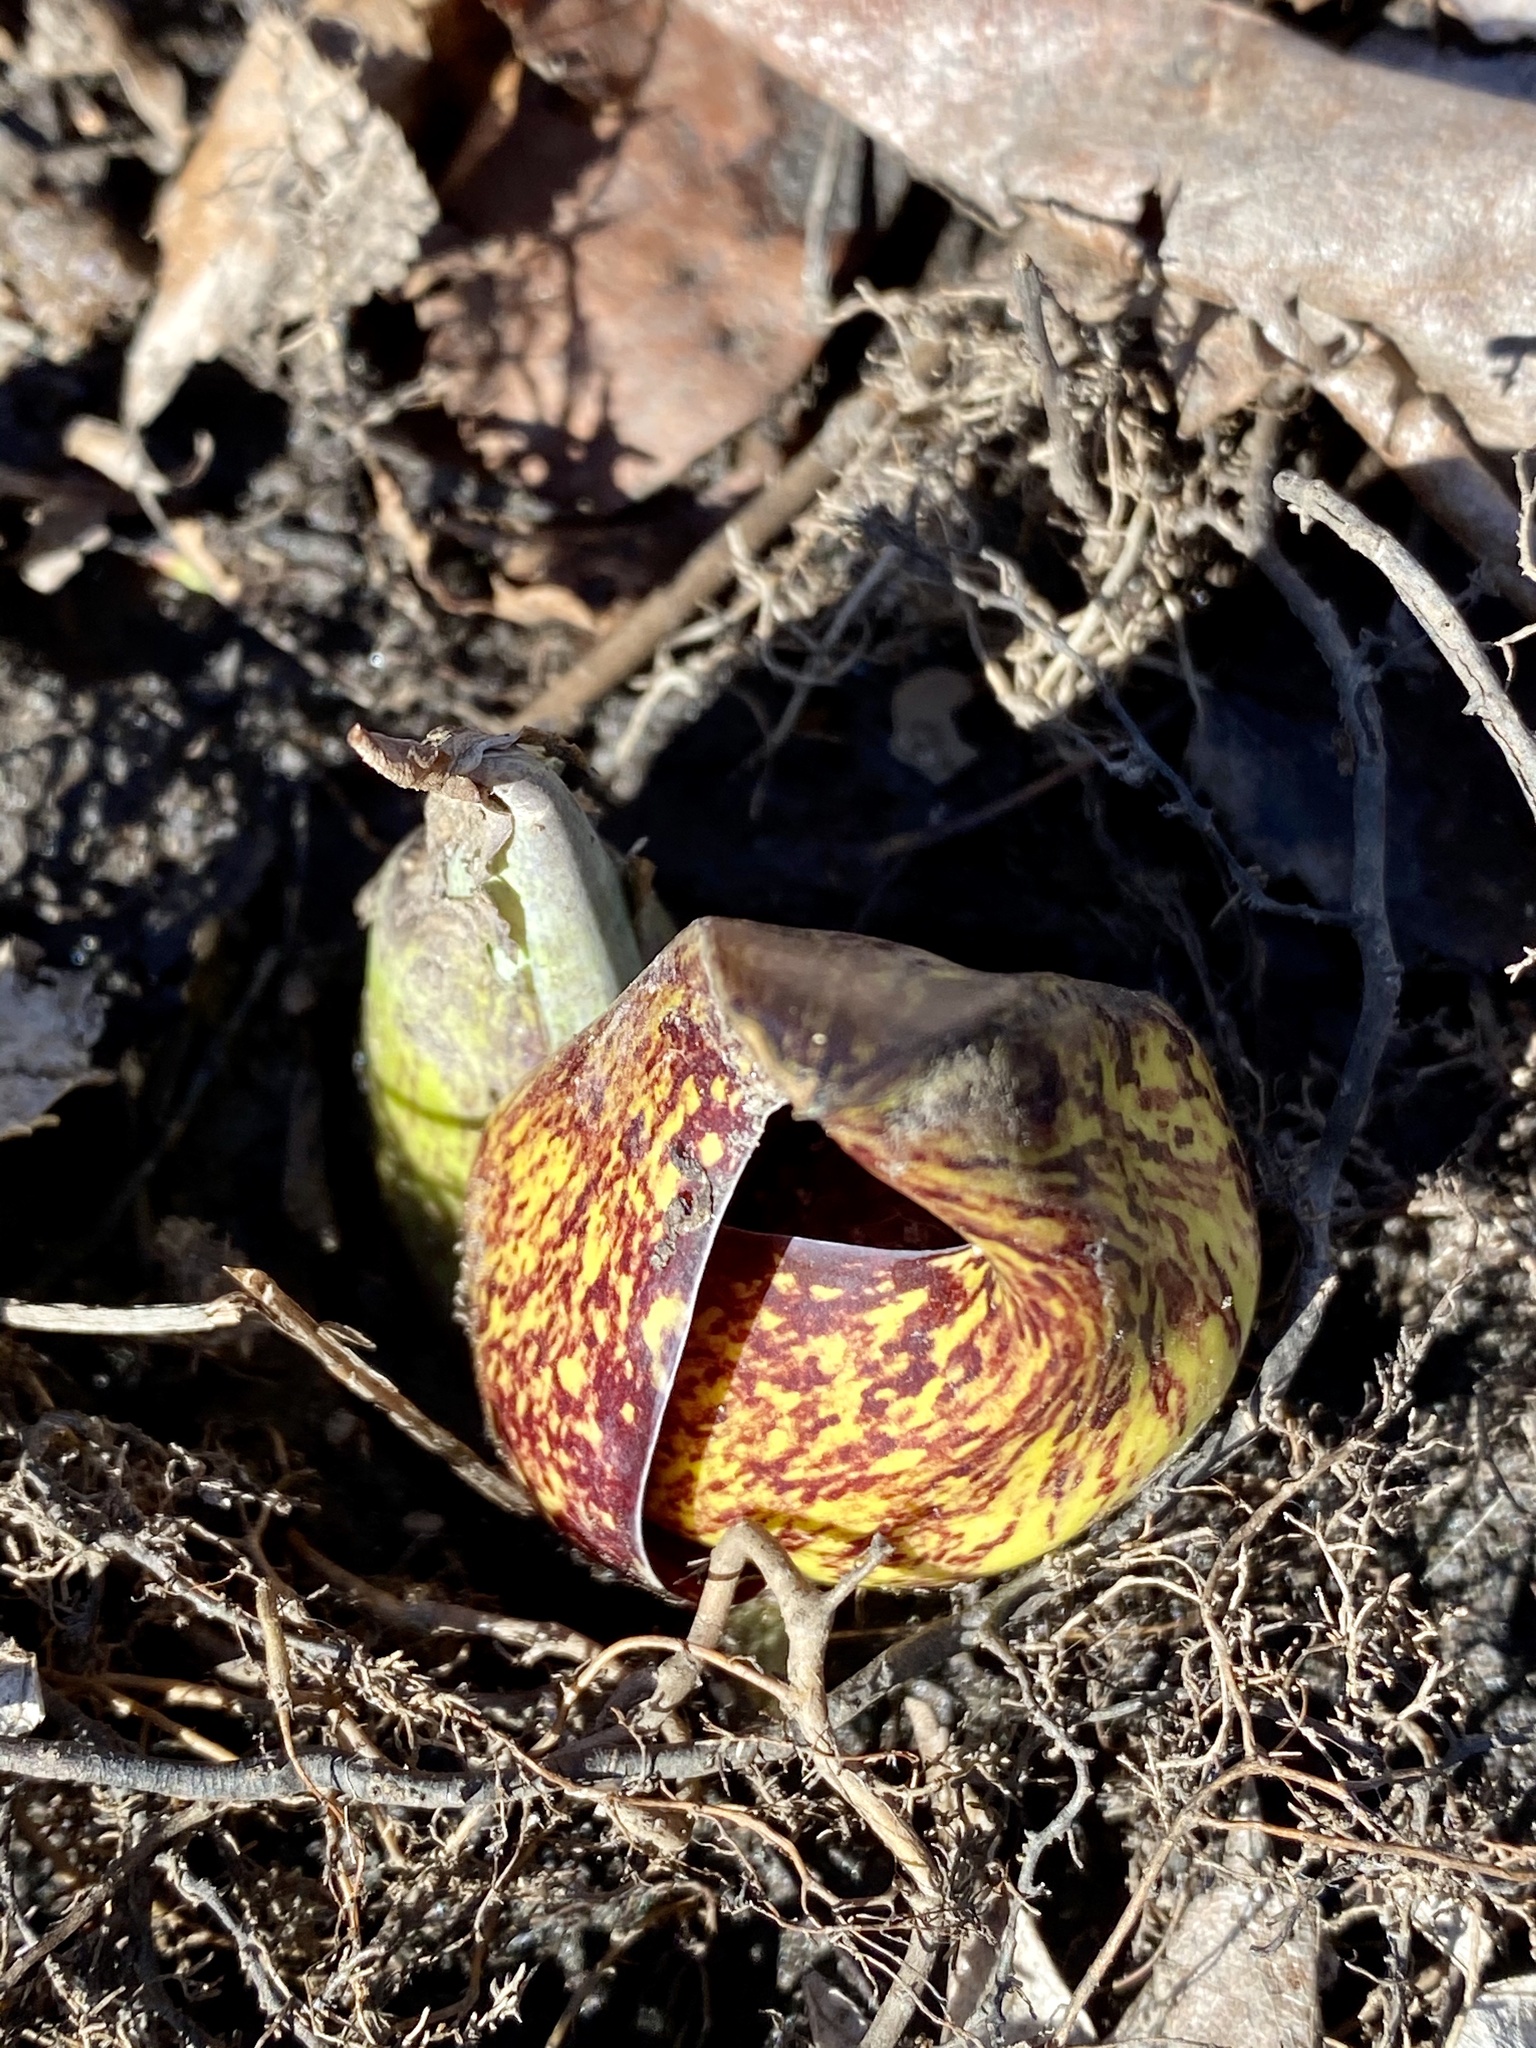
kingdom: Plantae
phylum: Tracheophyta
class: Liliopsida
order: Alismatales
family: Araceae
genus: Symplocarpus
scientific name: Symplocarpus foetidus
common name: Eastern skunk cabbage
